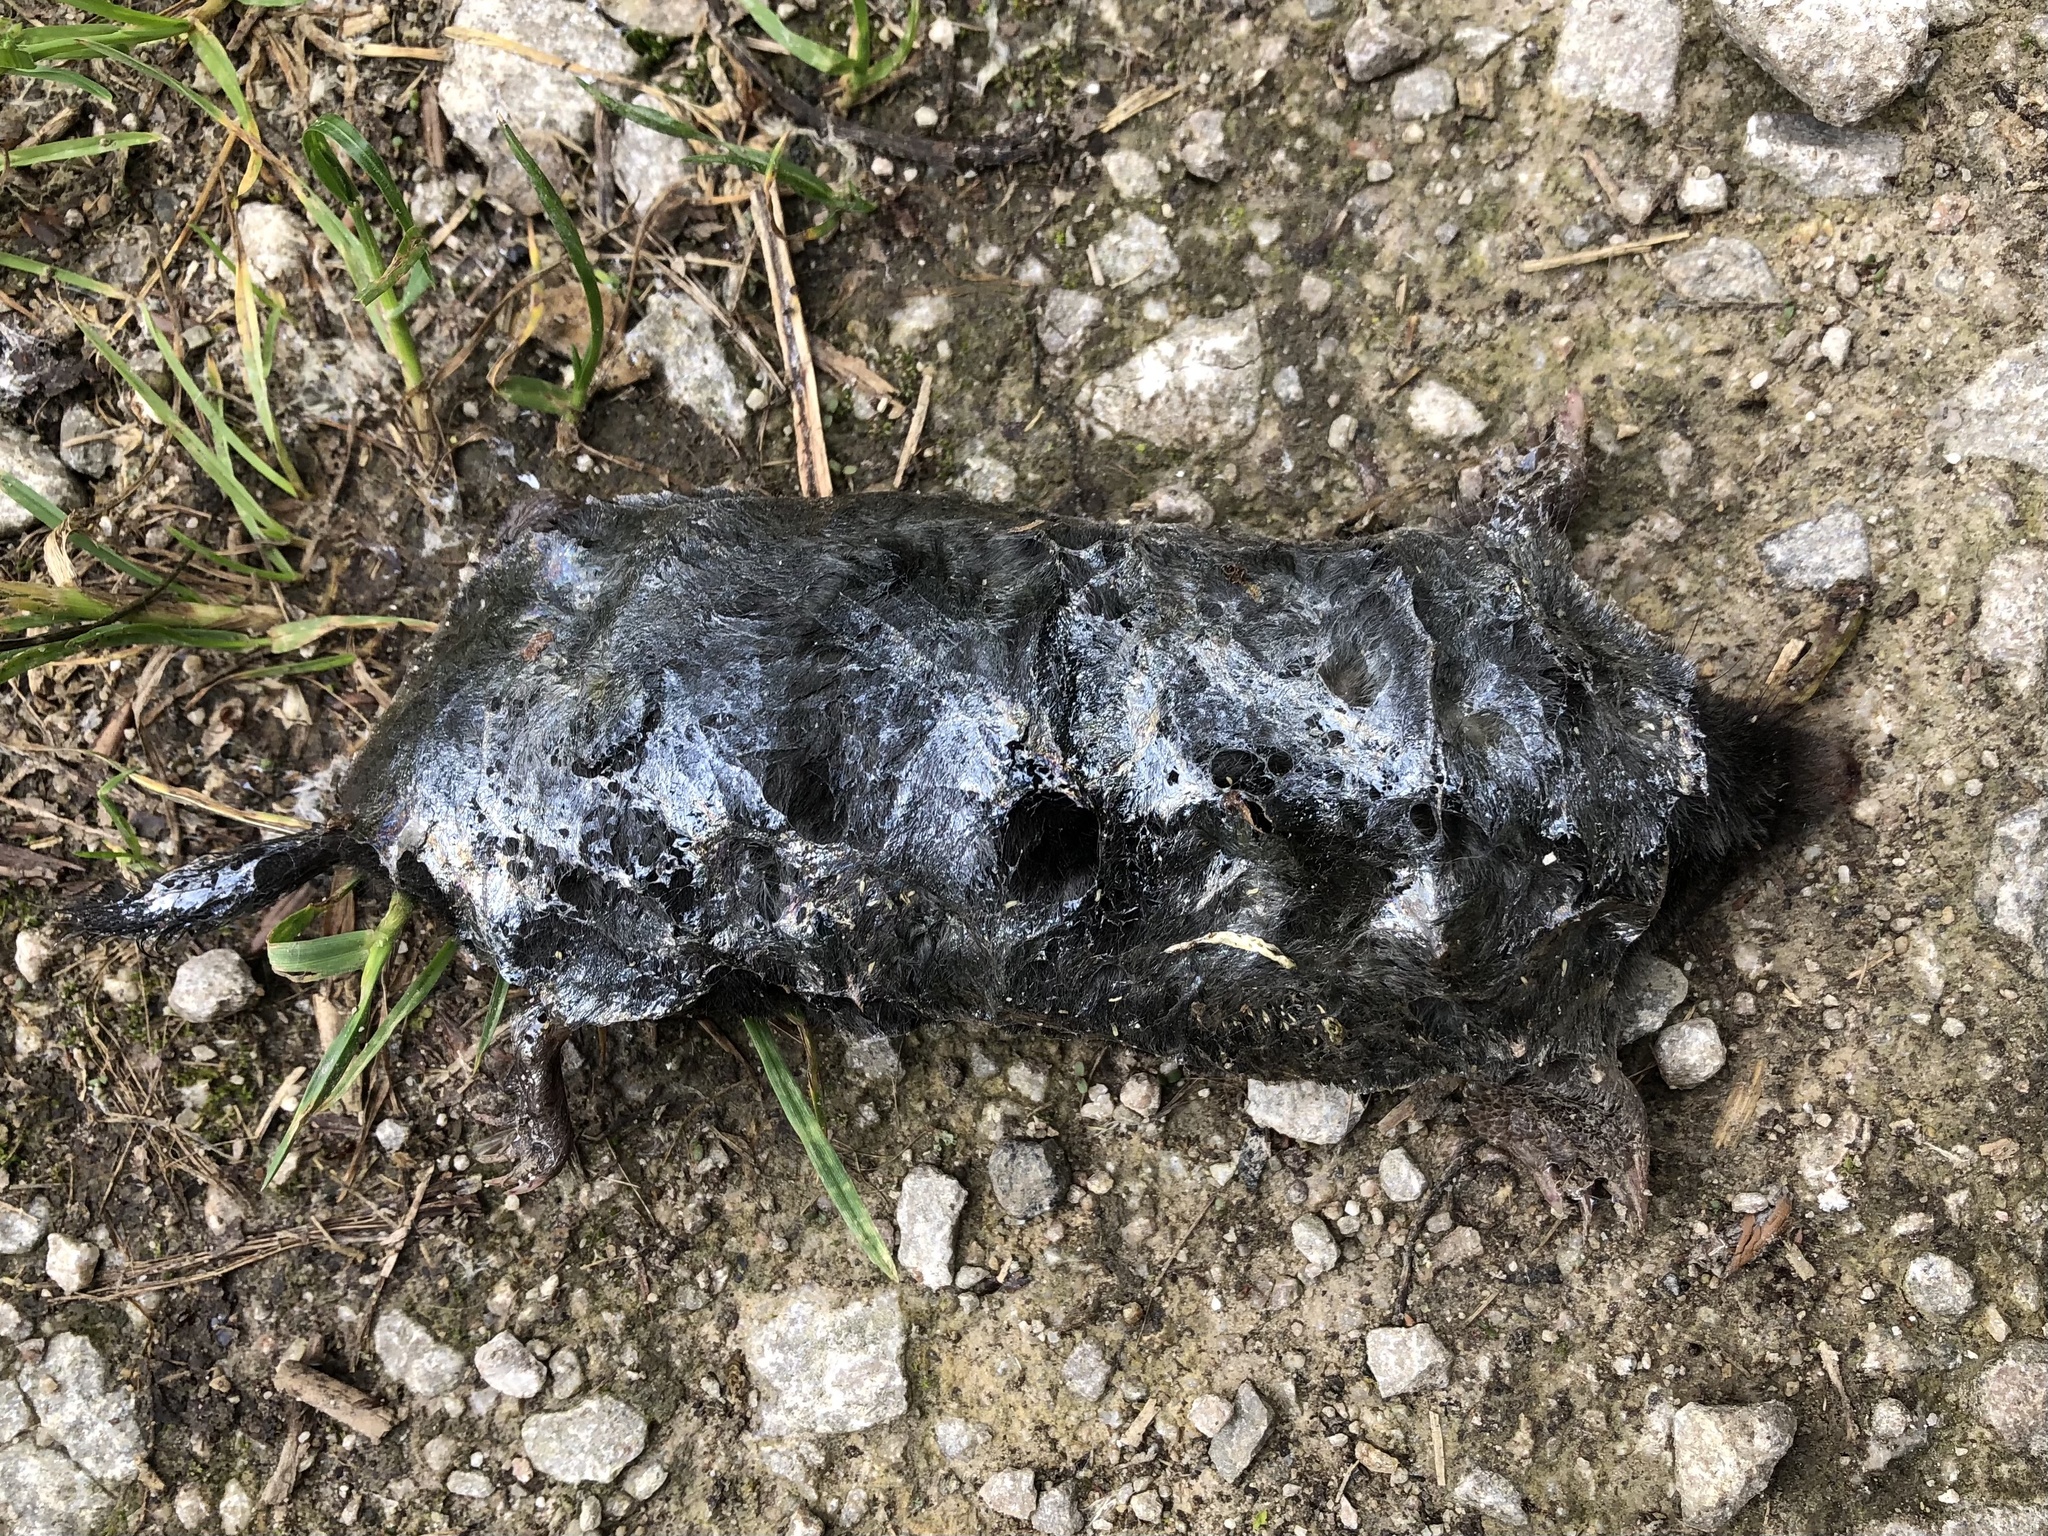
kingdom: Animalia
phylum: Chordata
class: Mammalia
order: Soricomorpha
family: Talpidae
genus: Talpa
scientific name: Talpa europaea
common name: European mole
